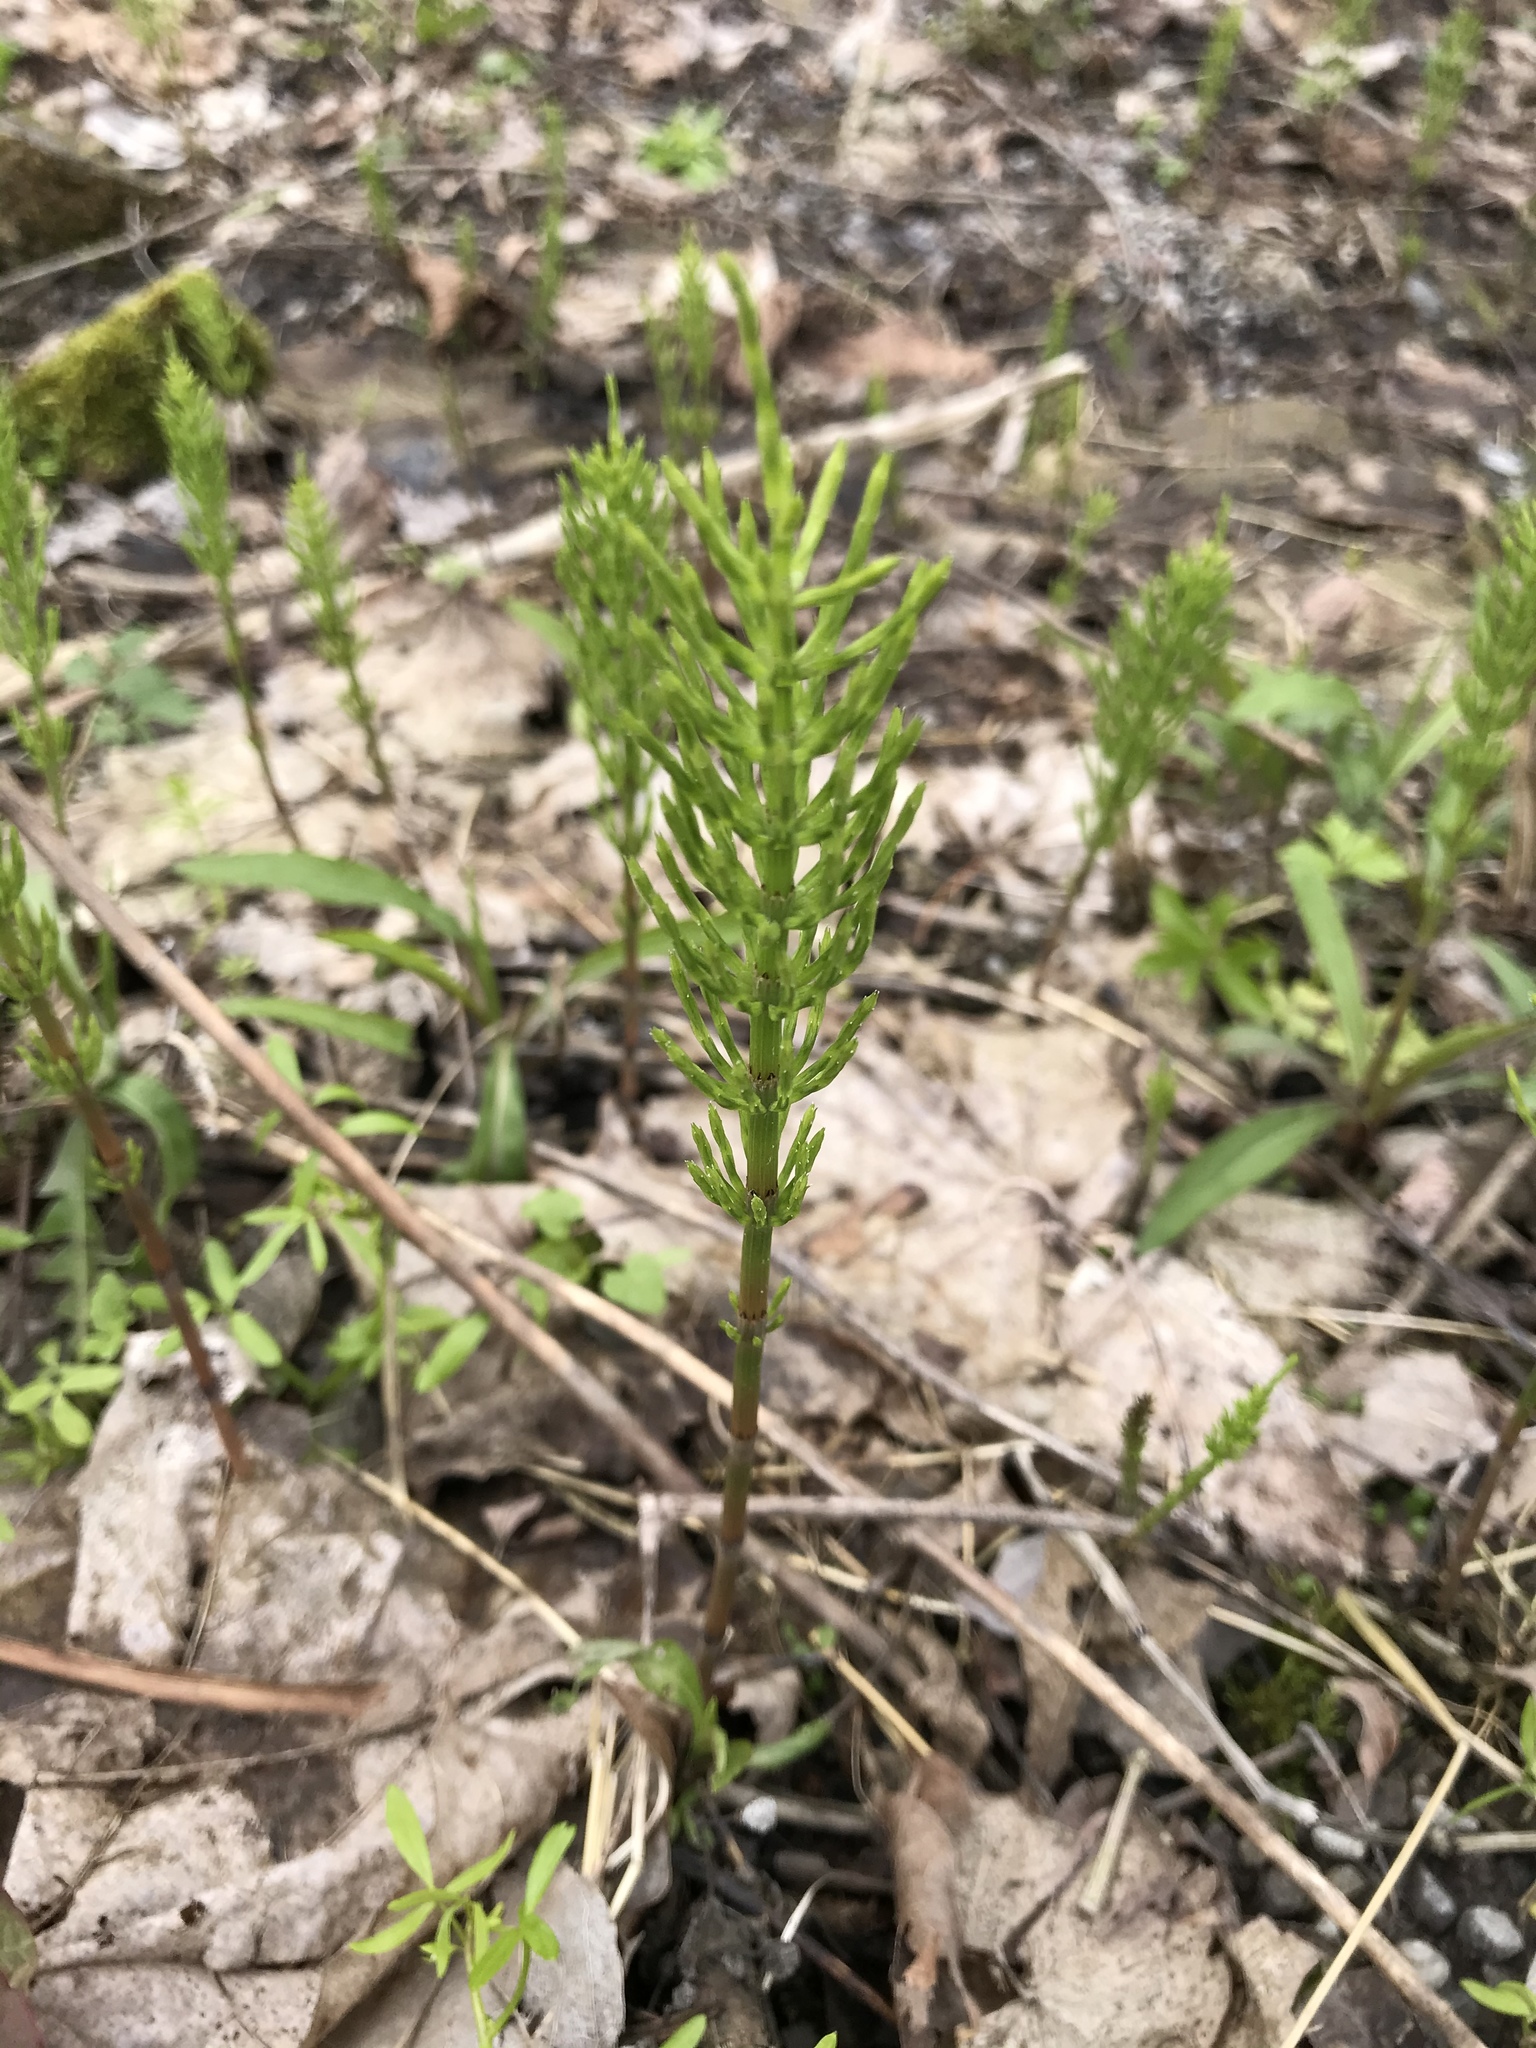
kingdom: Plantae
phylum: Tracheophyta
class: Polypodiopsida
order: Equisetales
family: Equisetaceae
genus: Equisetum
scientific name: Equisetum arvense
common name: Field horsetail
